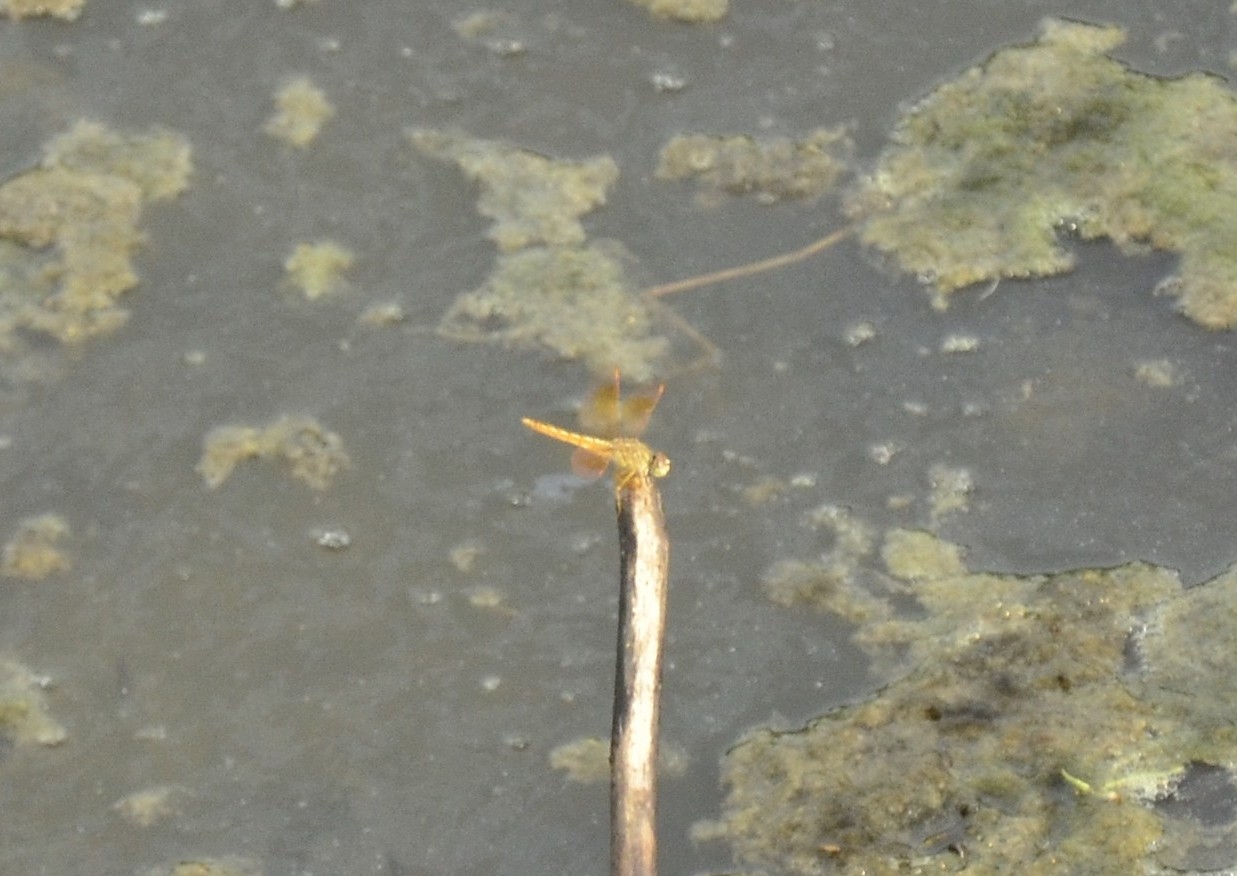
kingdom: Animalia
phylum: Arthropoda
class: Insecta
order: Odonata
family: Libellulidae
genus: Brachythemis
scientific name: Brachythemis contaminata
